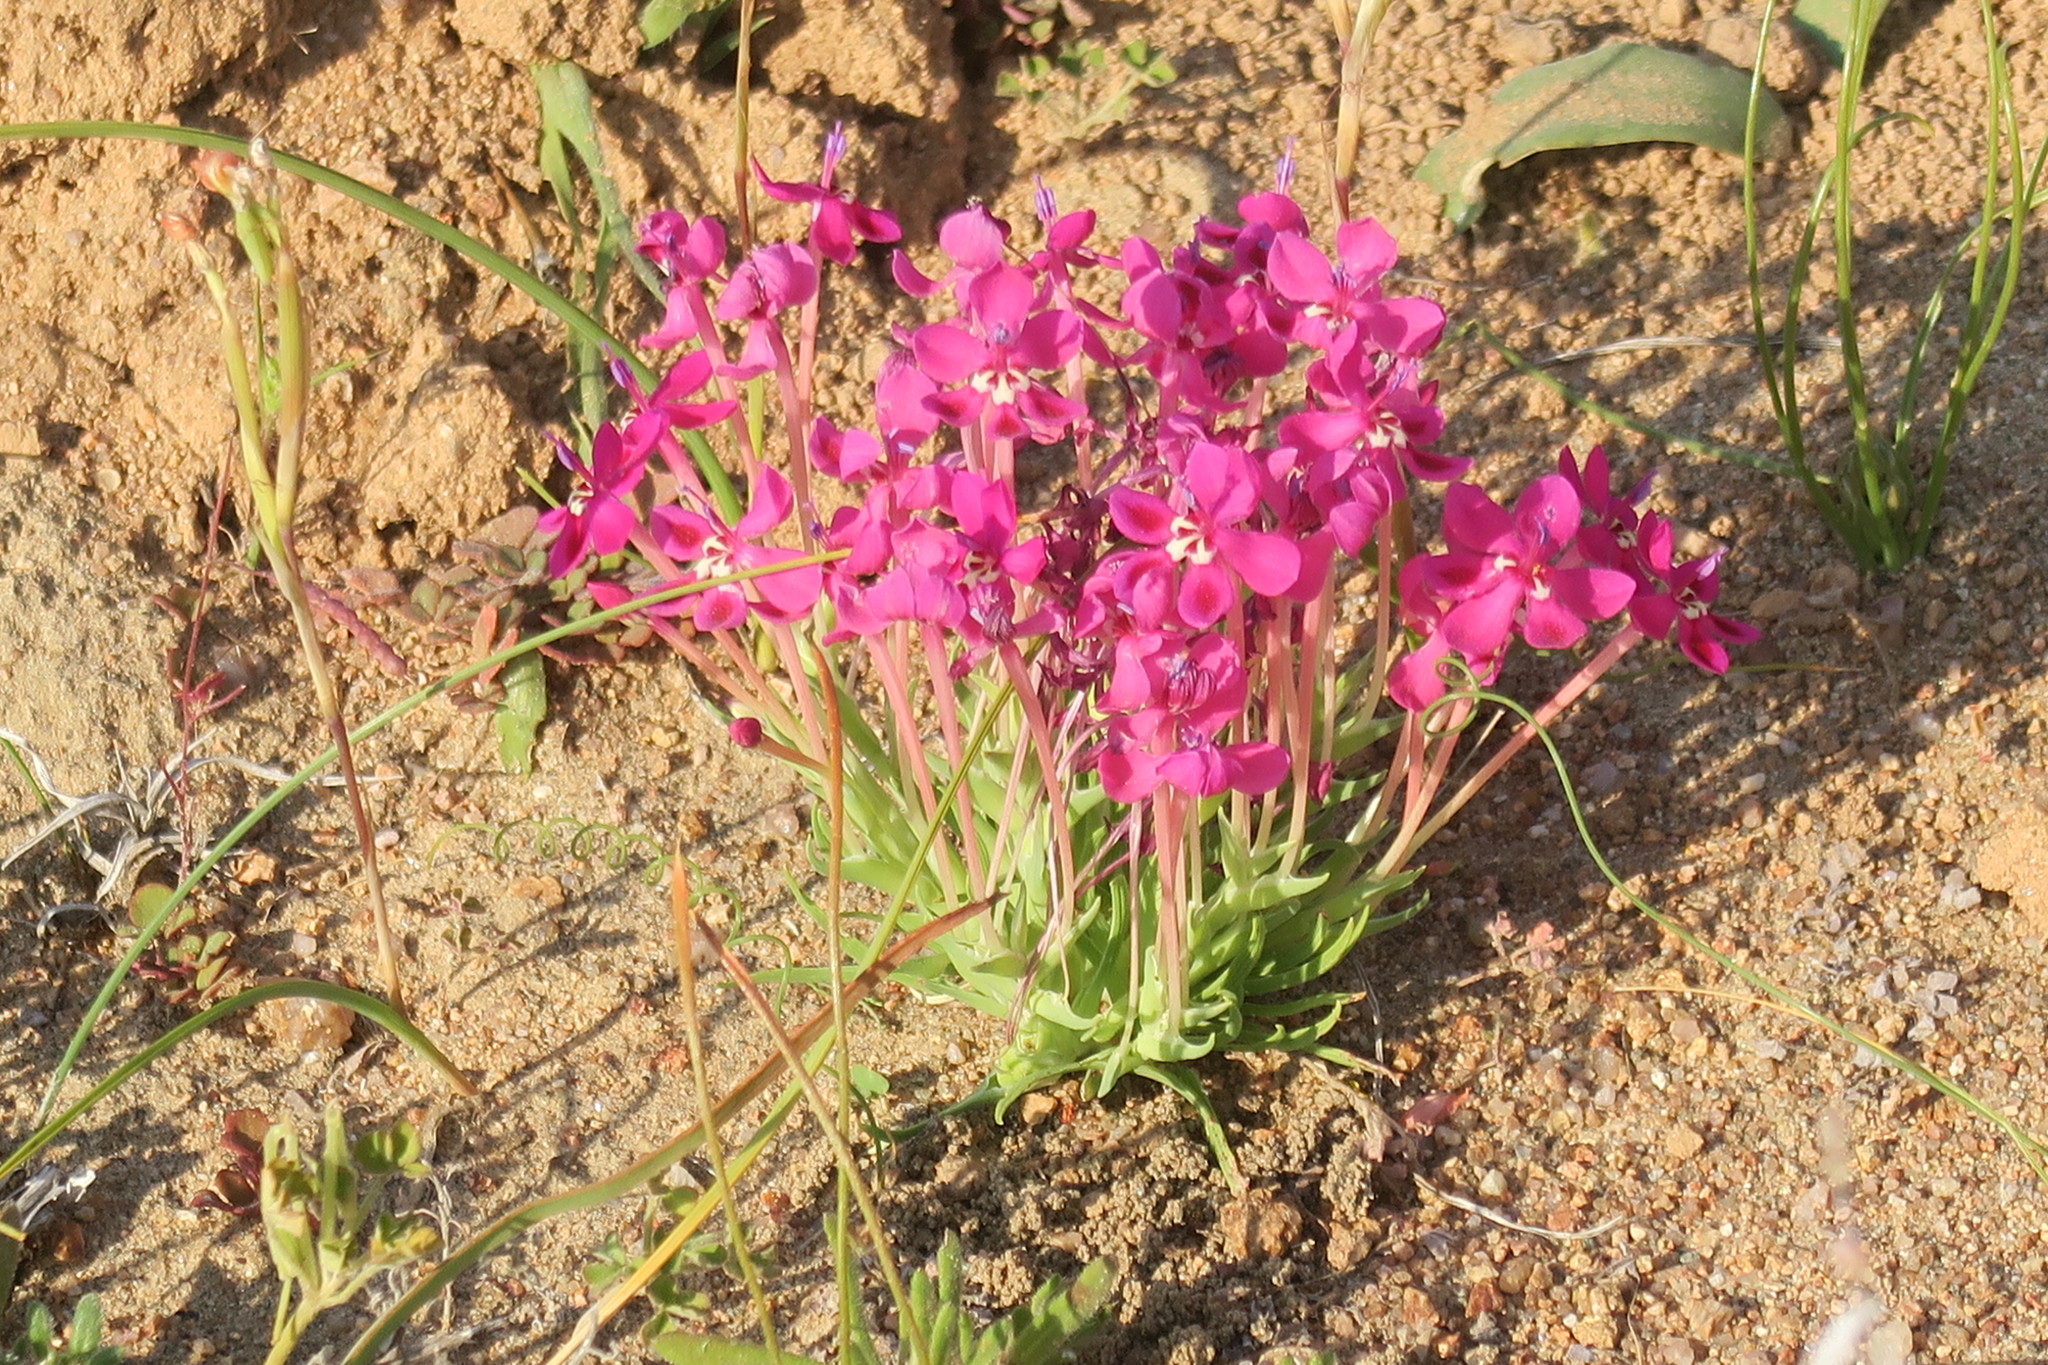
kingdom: Plantae
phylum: Tracheophyta
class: Liliopsida
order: Asparagales
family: Iridaceae
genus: Lapeirousia
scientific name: Lapeirousia silenoides
